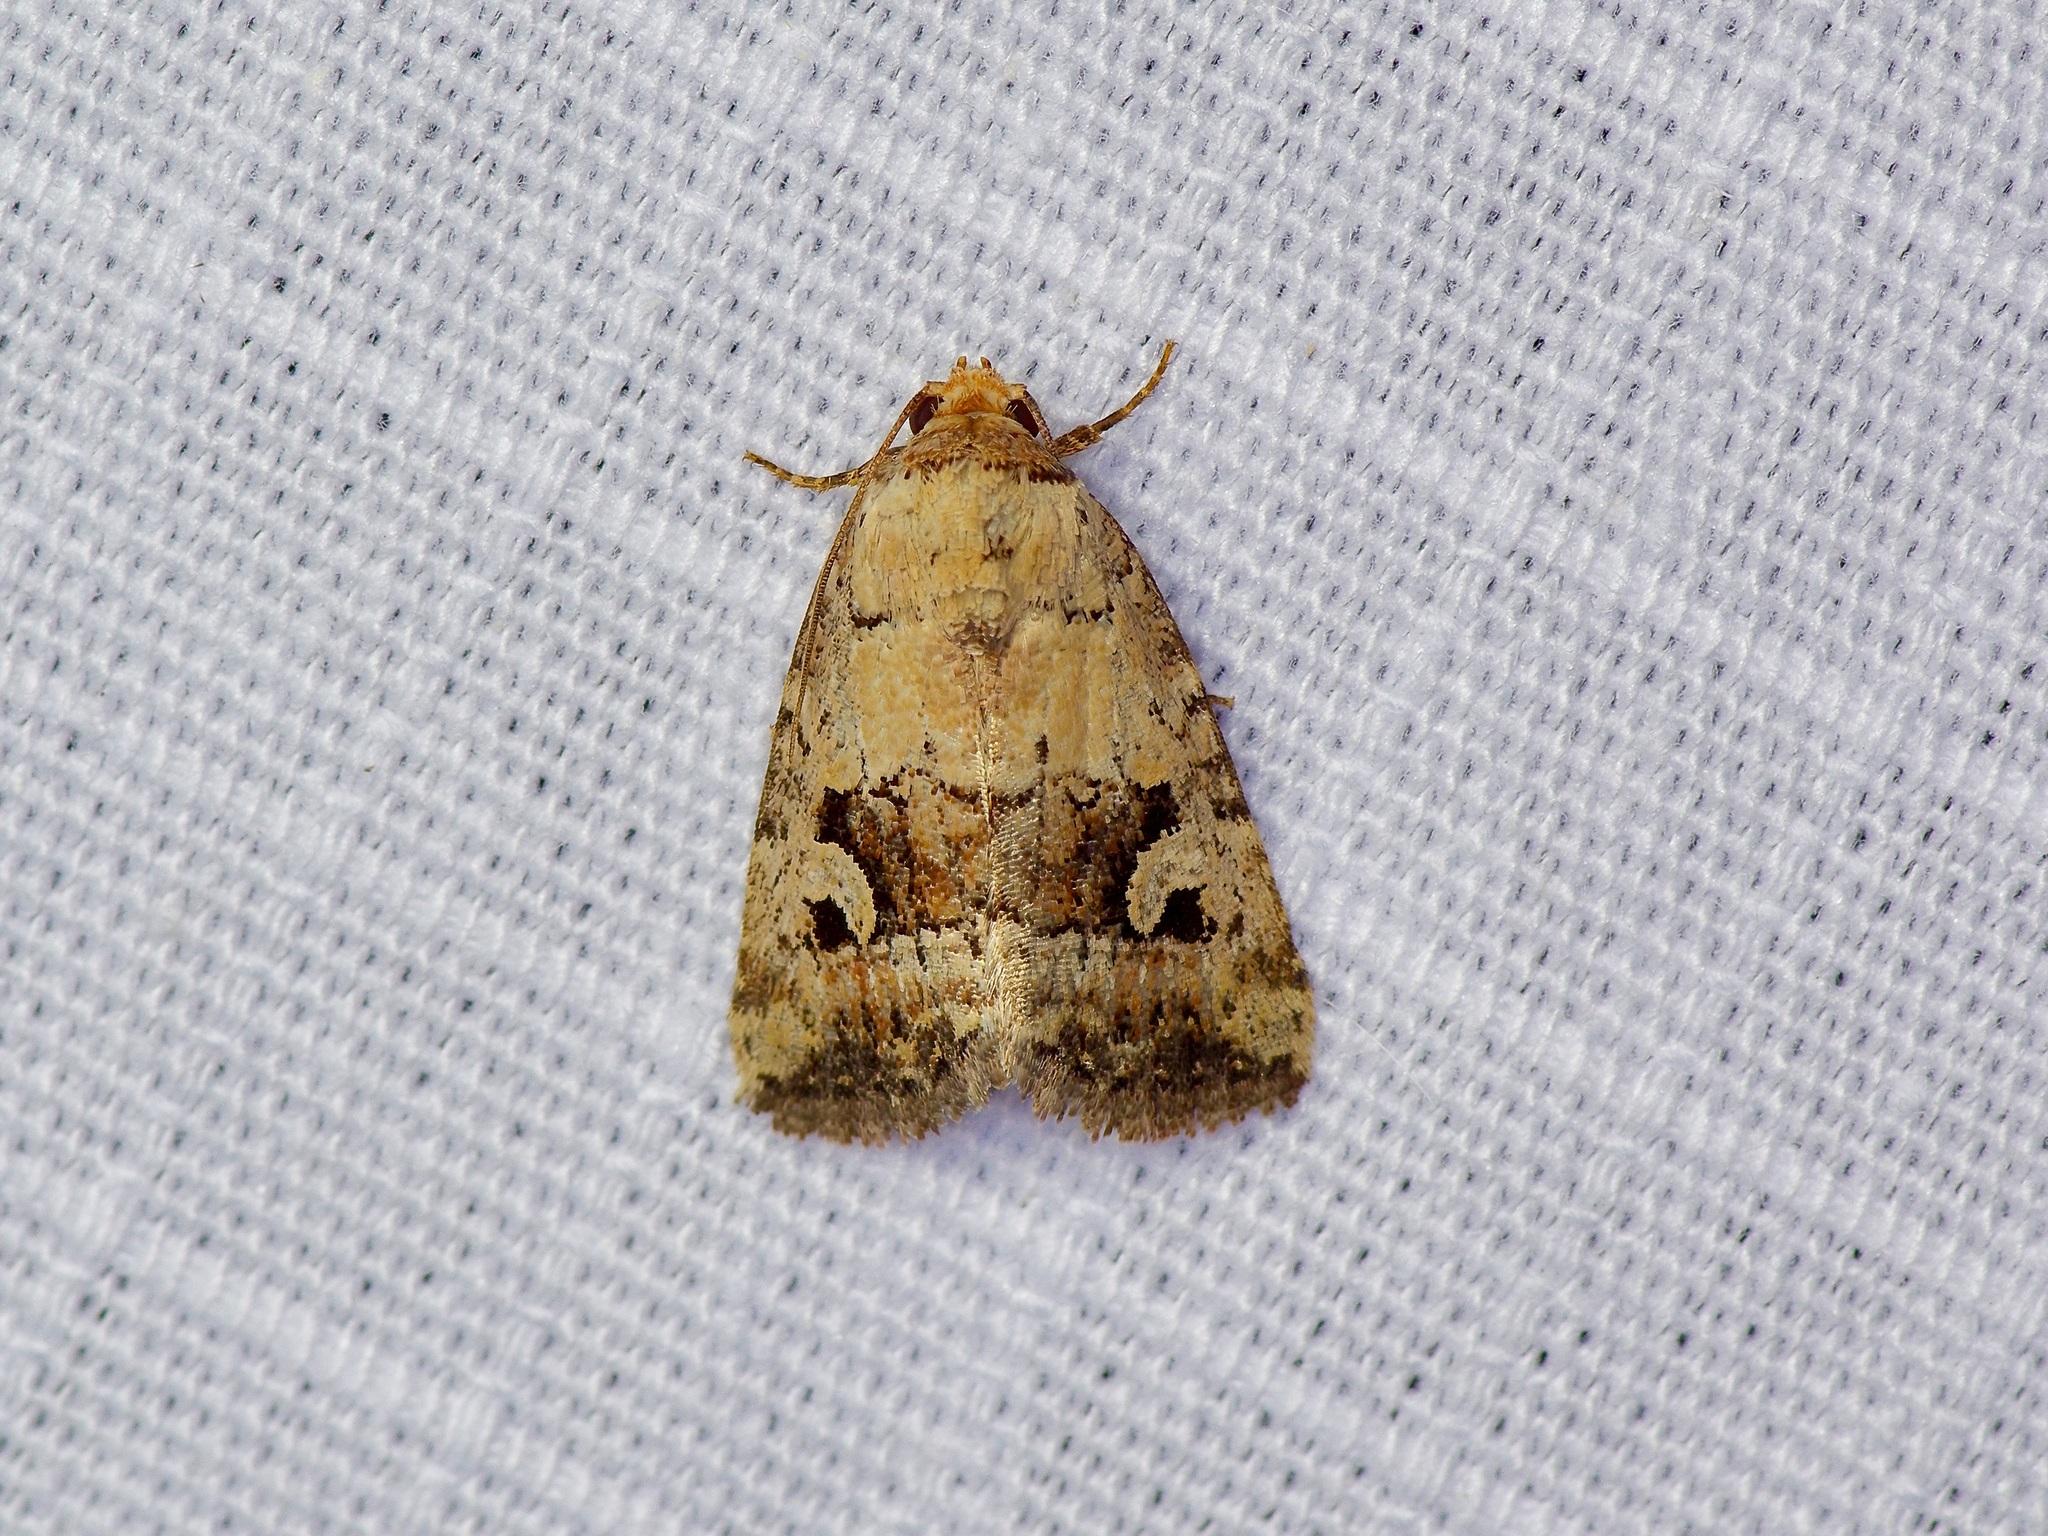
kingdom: Animalia
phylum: Arthropoda
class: Insecta
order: Lepidoptera
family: Noctuidae
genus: Elaphria
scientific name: Elaphria festivoides
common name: Festive midget
